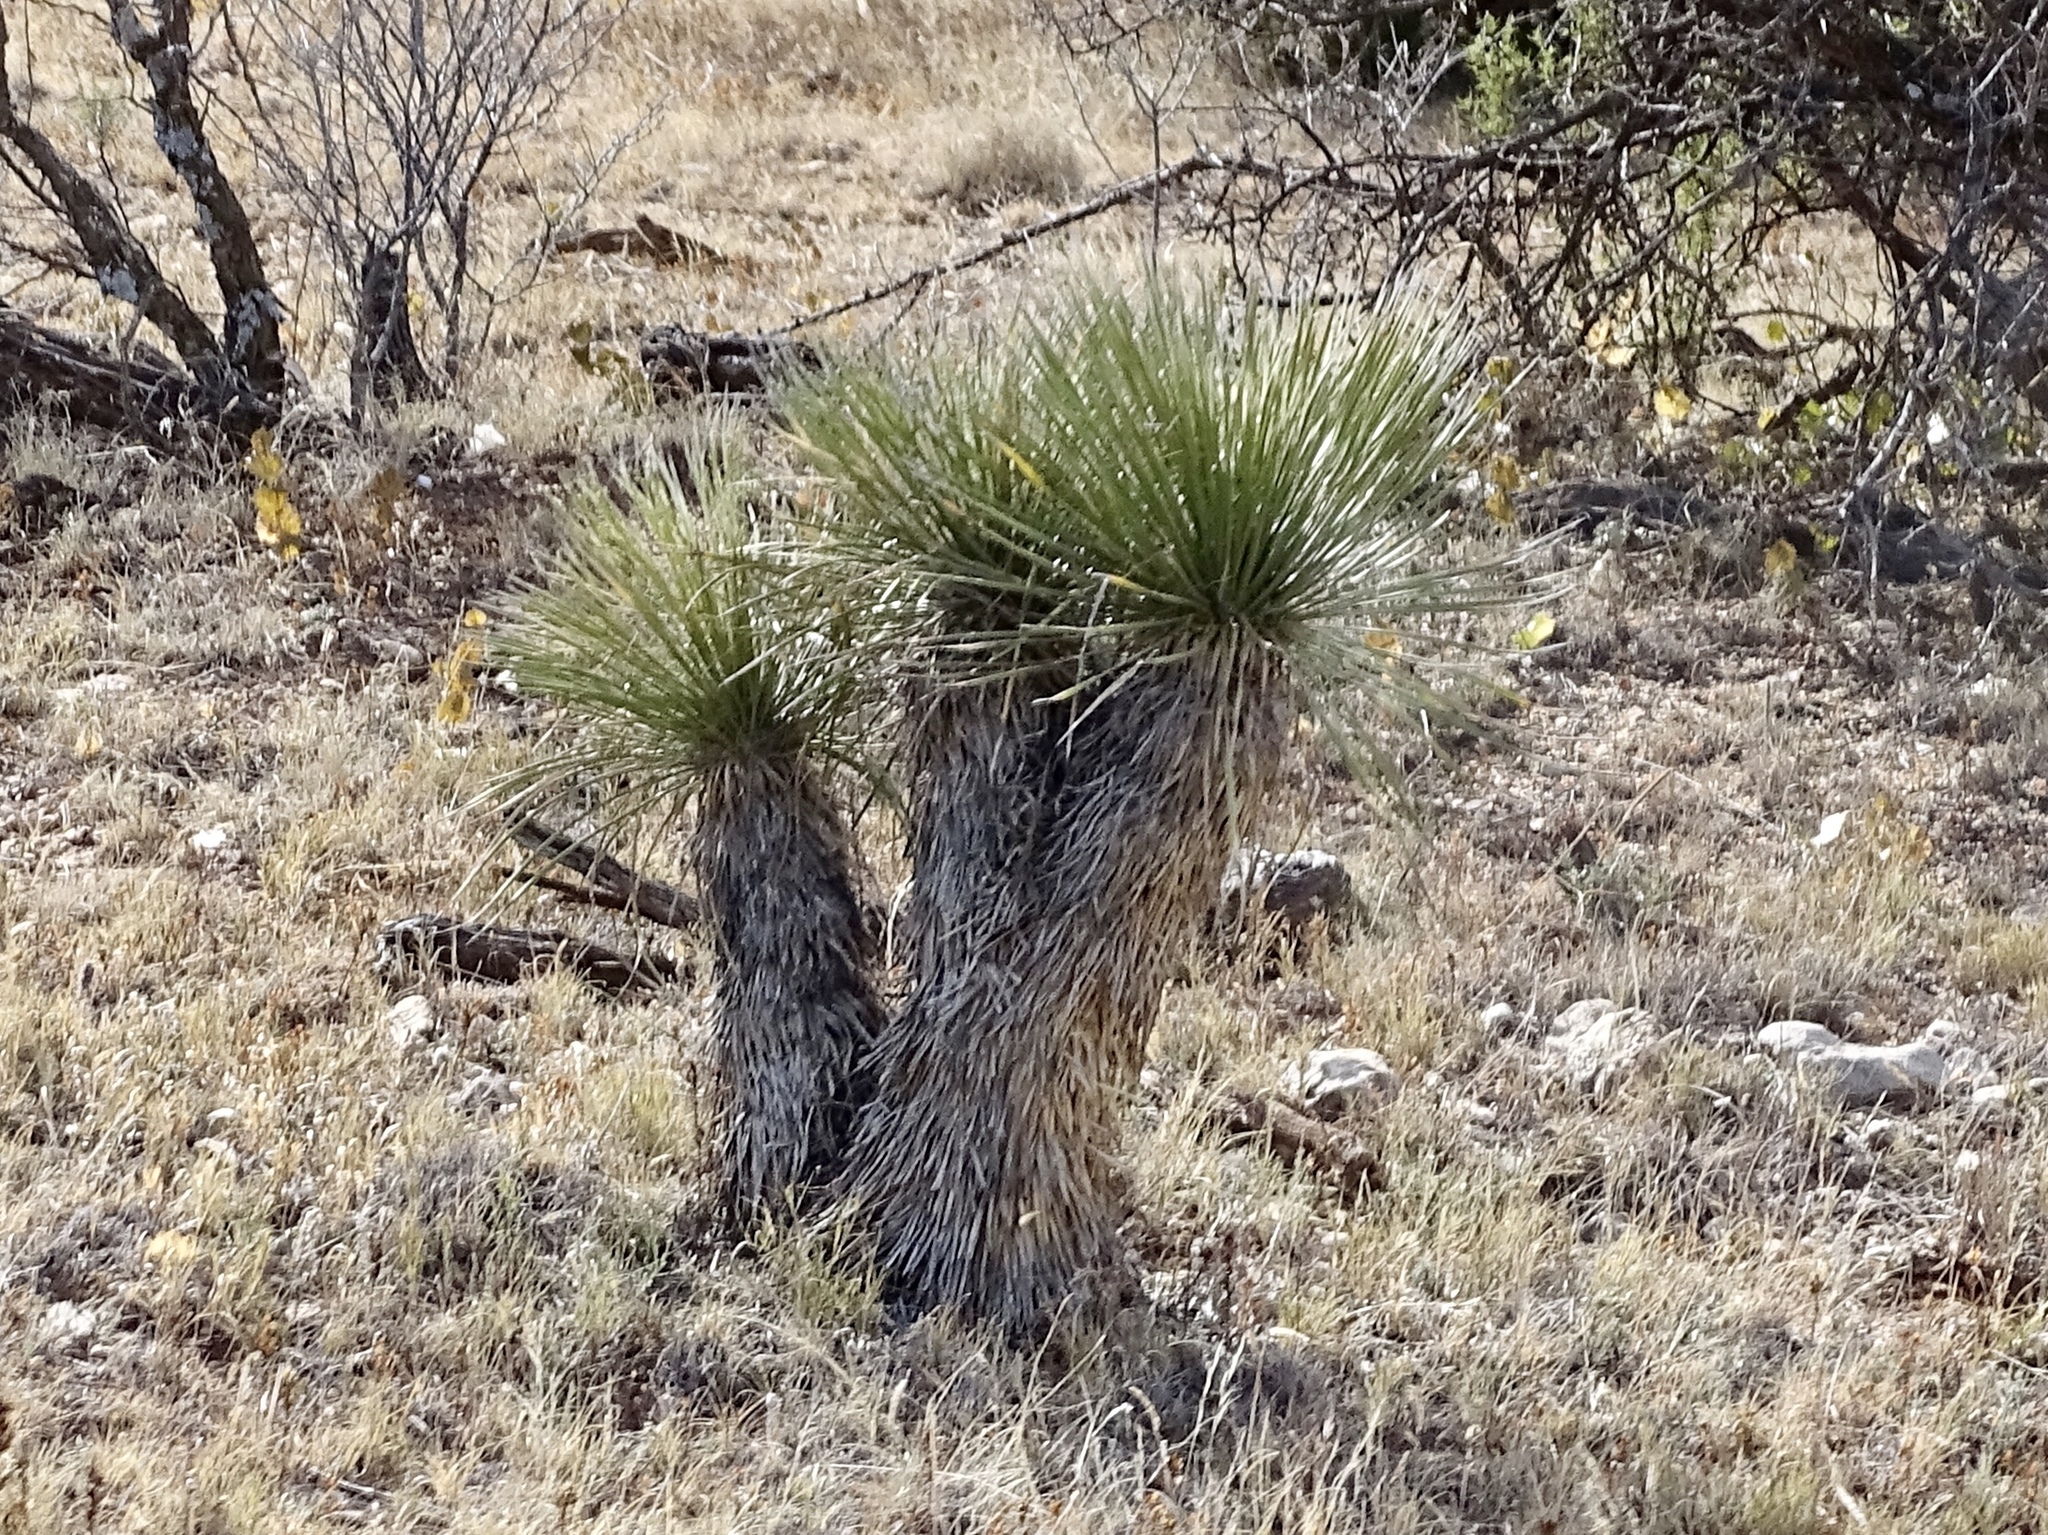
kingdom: Plantae
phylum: Tracheophyta
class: Liliopsida
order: Asparagales
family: Asparagaceae
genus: Yucca
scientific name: Yucca elata
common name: Palmella
